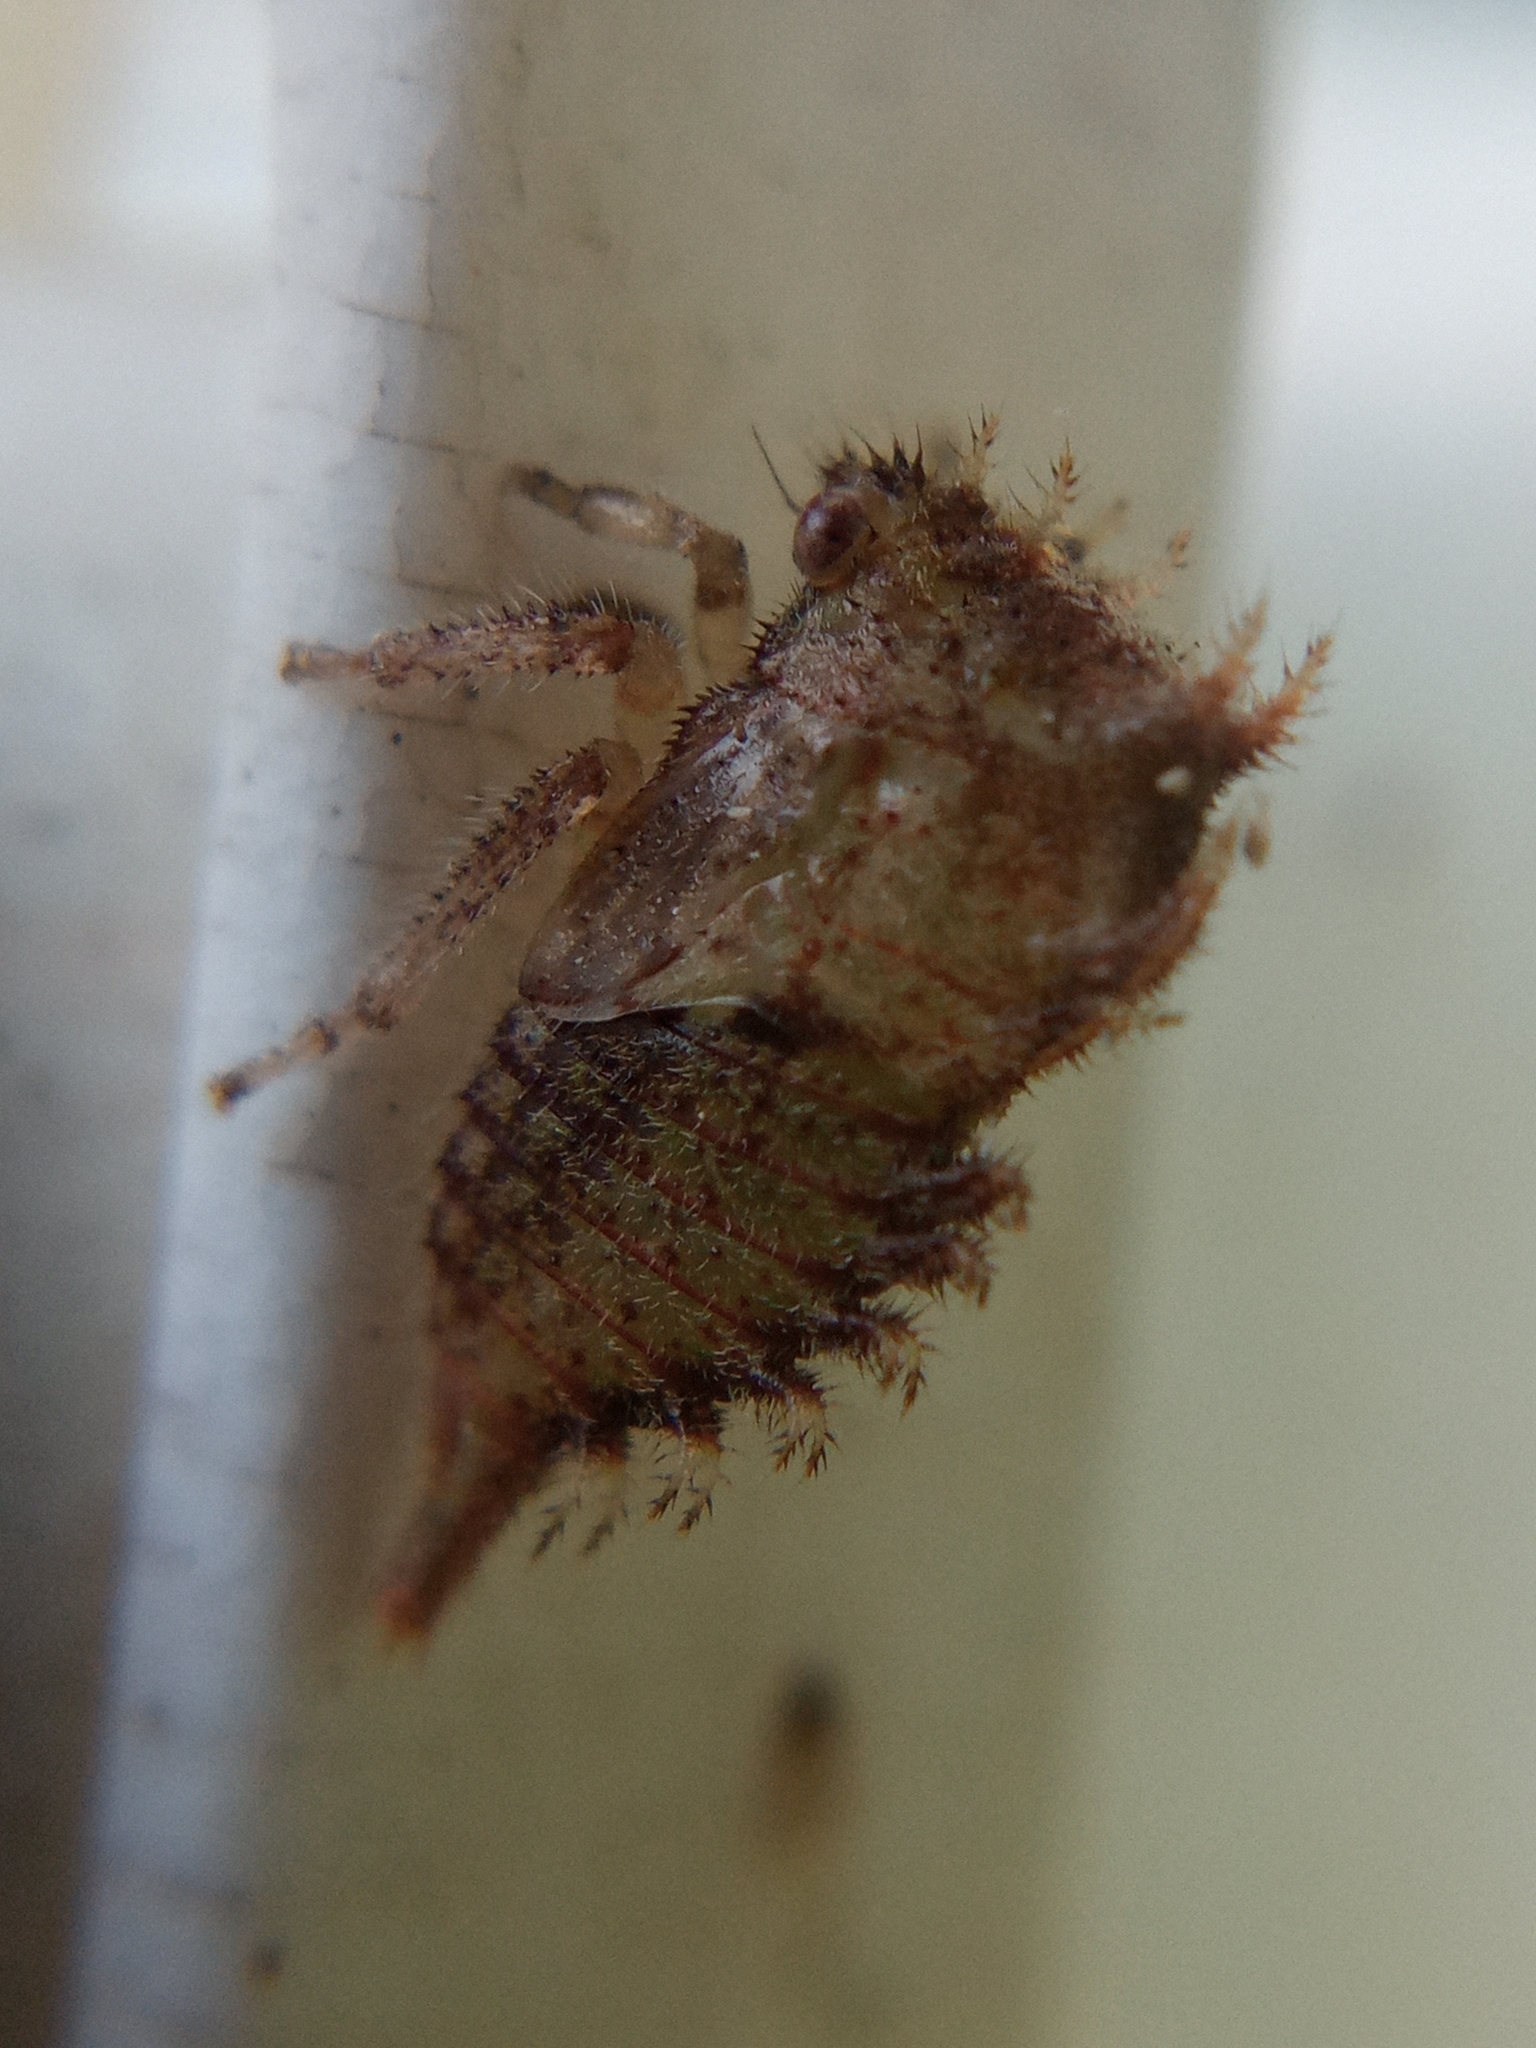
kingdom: Animalia
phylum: Arthropoda
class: Insecta
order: Hemiptera
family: Membracidae
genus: Stictocephala
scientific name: Stictocephala bisonia
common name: American buffalo treehopper
